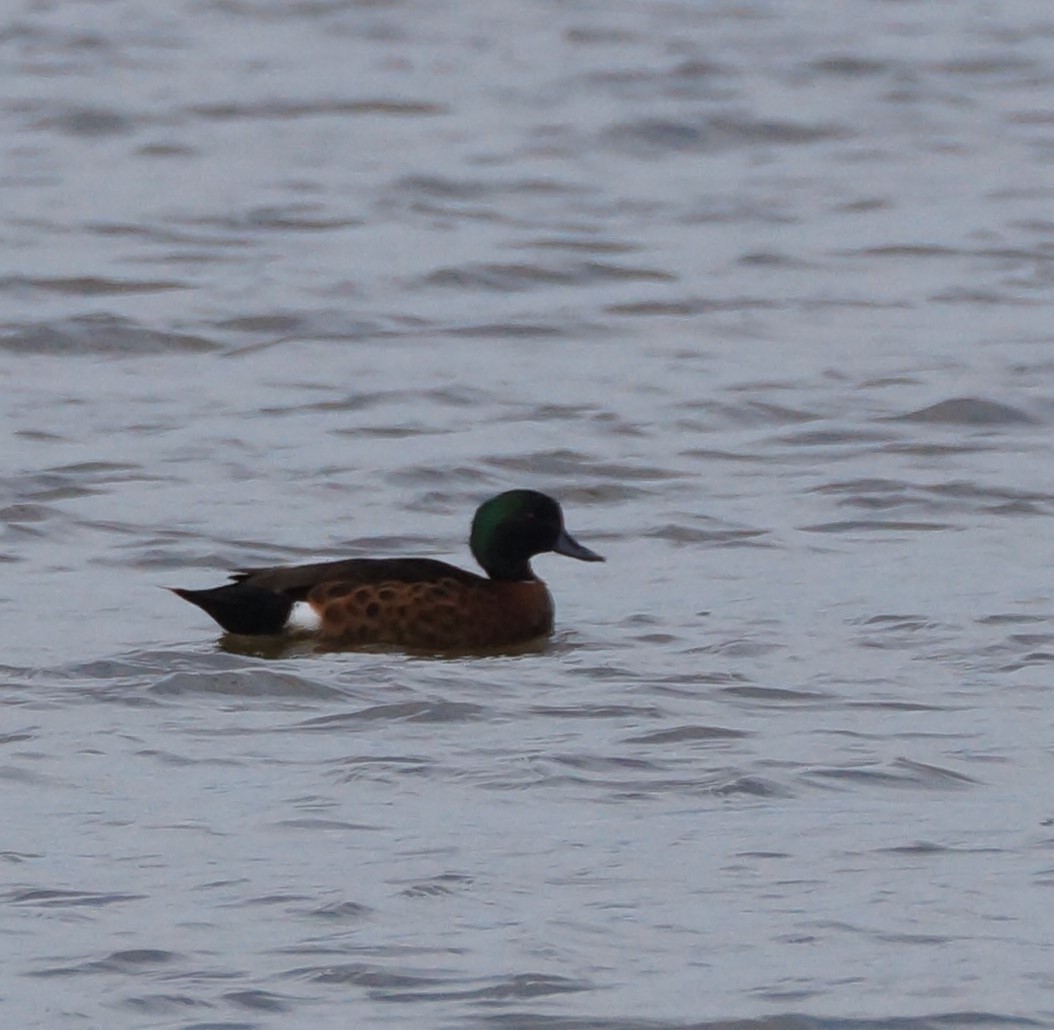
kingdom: Animalia
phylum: Chordata
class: Aves
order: Anseriformes
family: Anatidae
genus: Anas
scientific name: Anas castanea
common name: Chestnut teal
